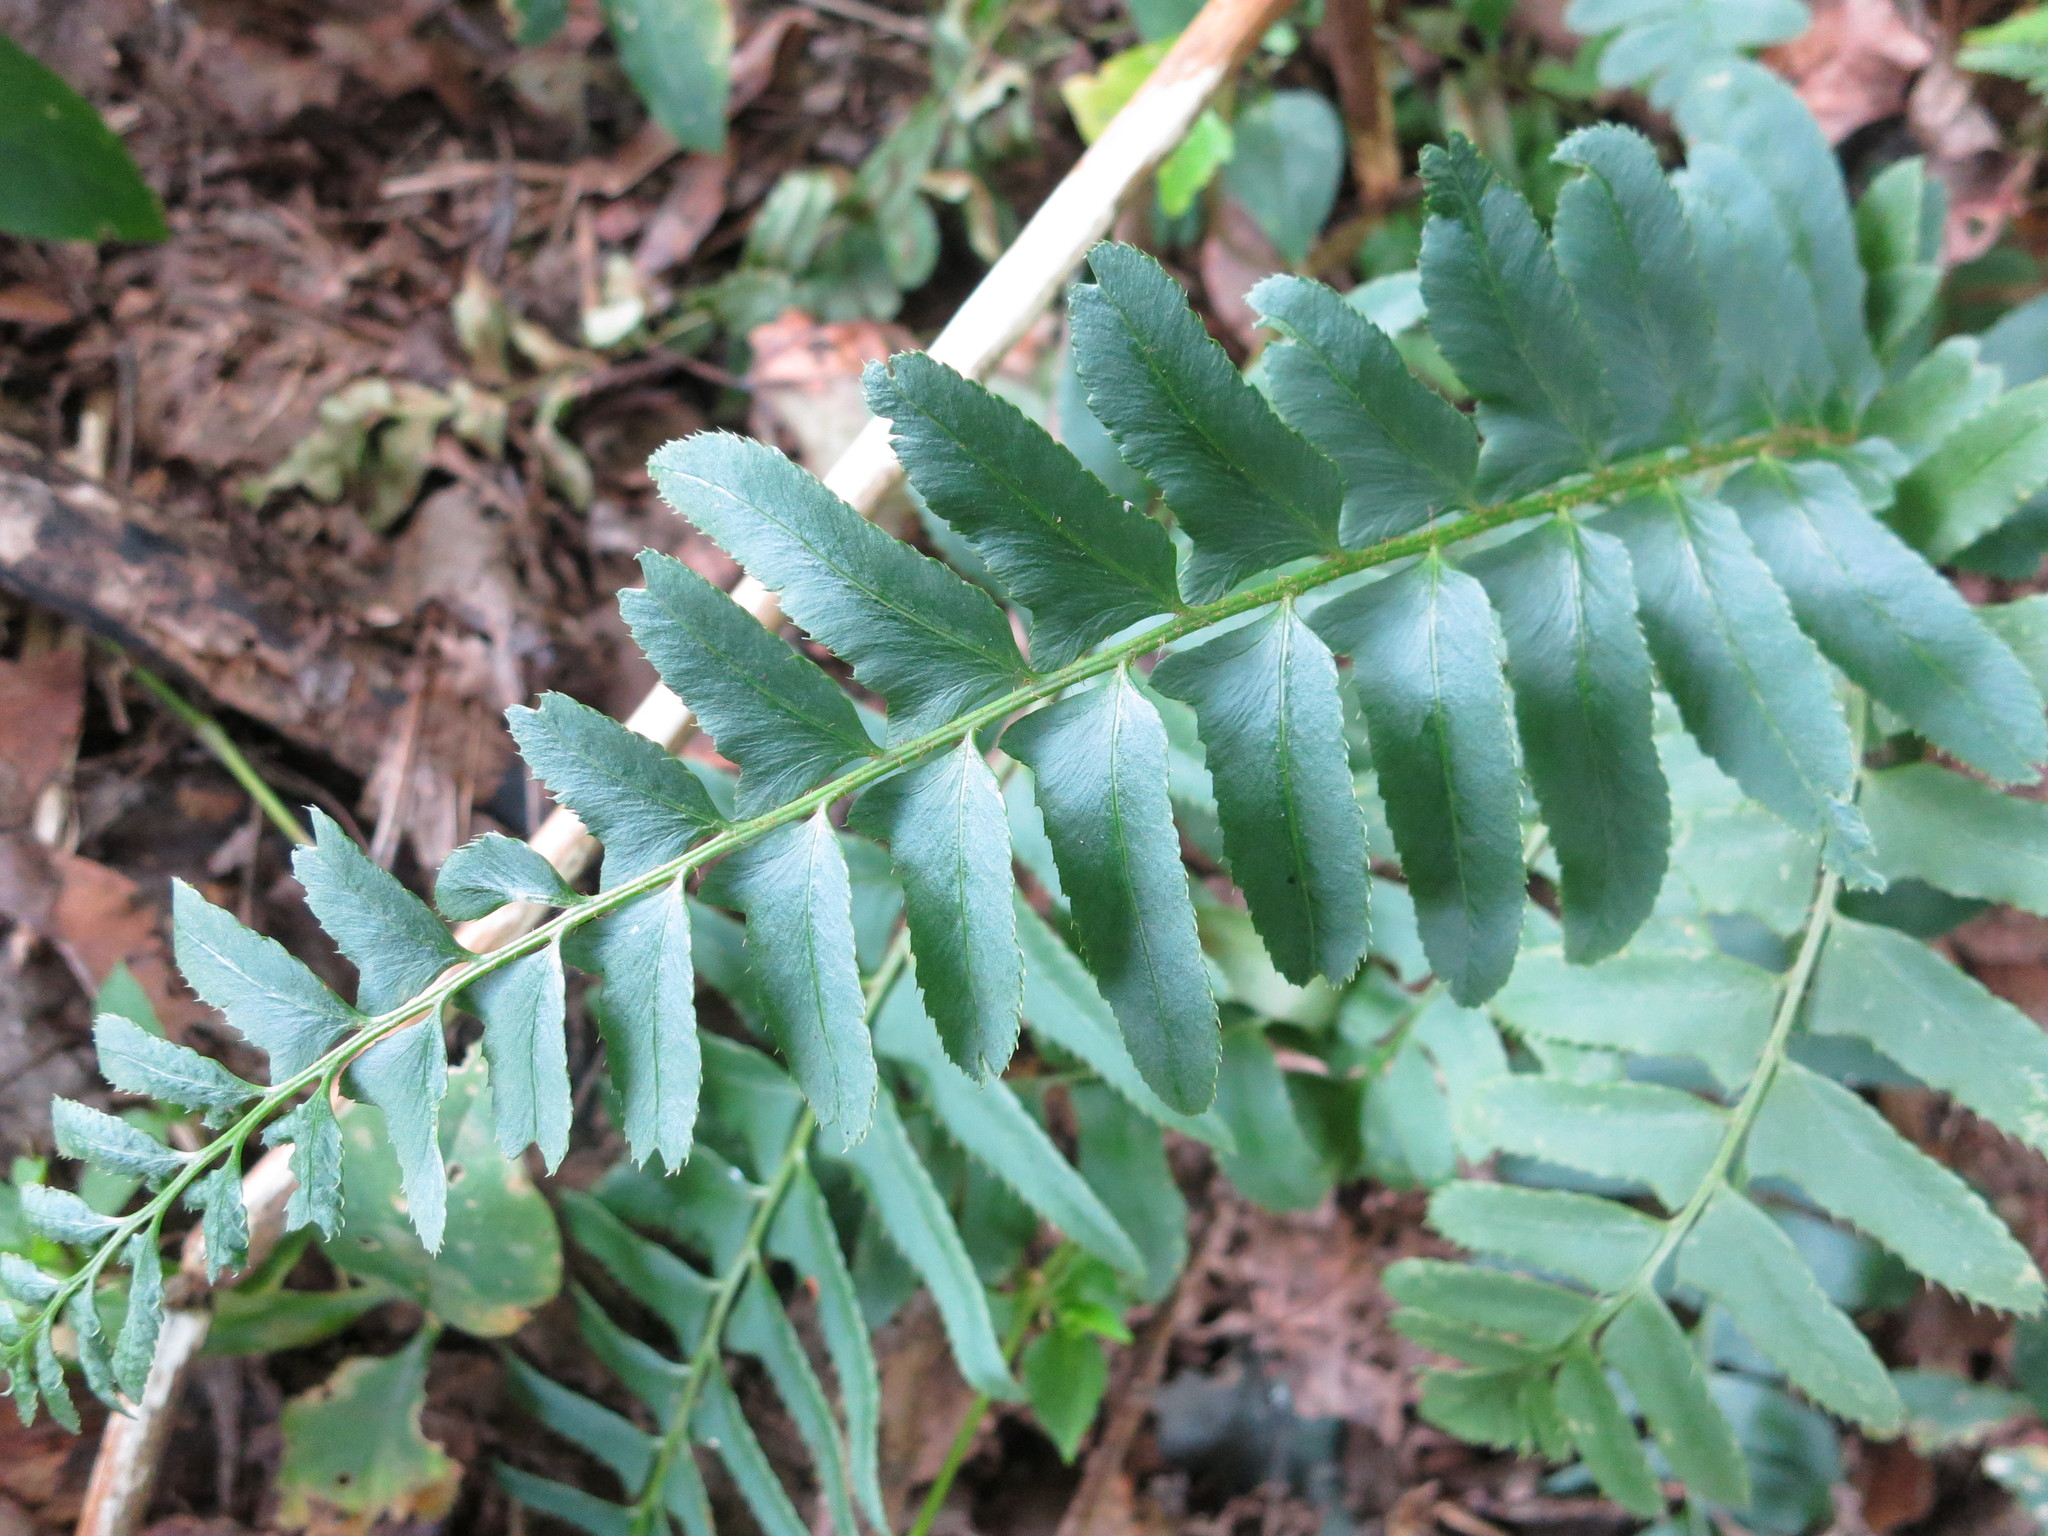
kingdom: Plantae
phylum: Tracheophyta
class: Polypodiopsida
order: Polypodiales
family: Dryopteridaceae
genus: Polystichum
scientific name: Polystichum acrostichoides
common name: Christmas fern
